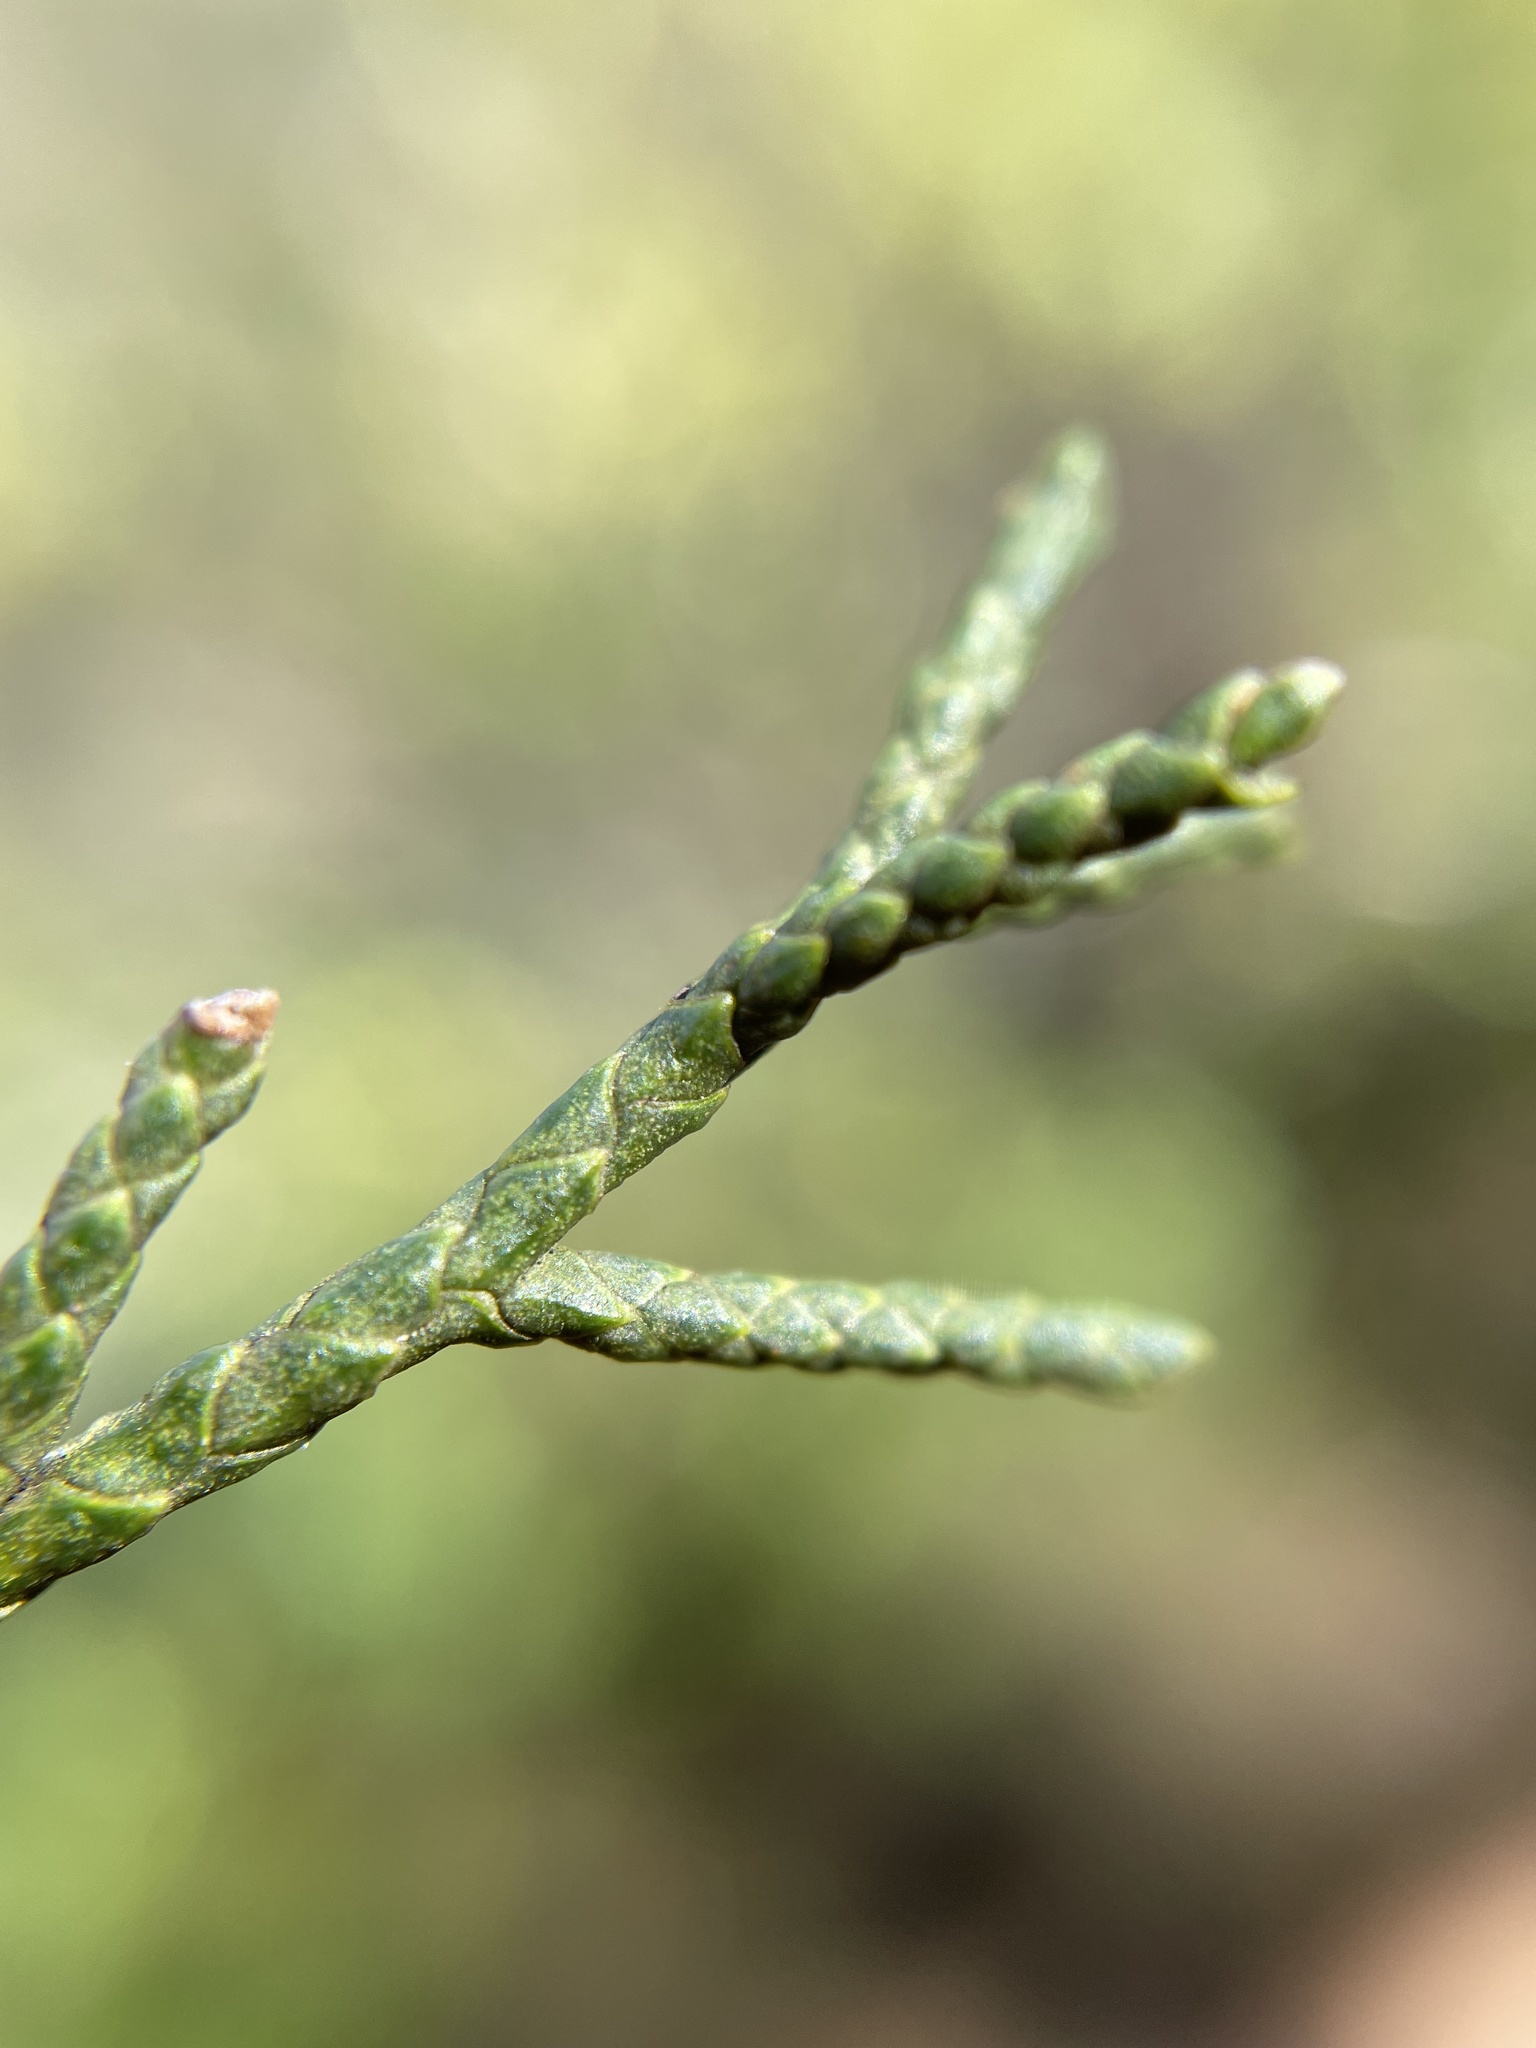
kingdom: Plantae
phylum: Tracheophyta
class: Pinopsida
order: Pinales
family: Cupressaceae
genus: Widdringtonia
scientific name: Widdringtonia nodiflora
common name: Cape cypress
